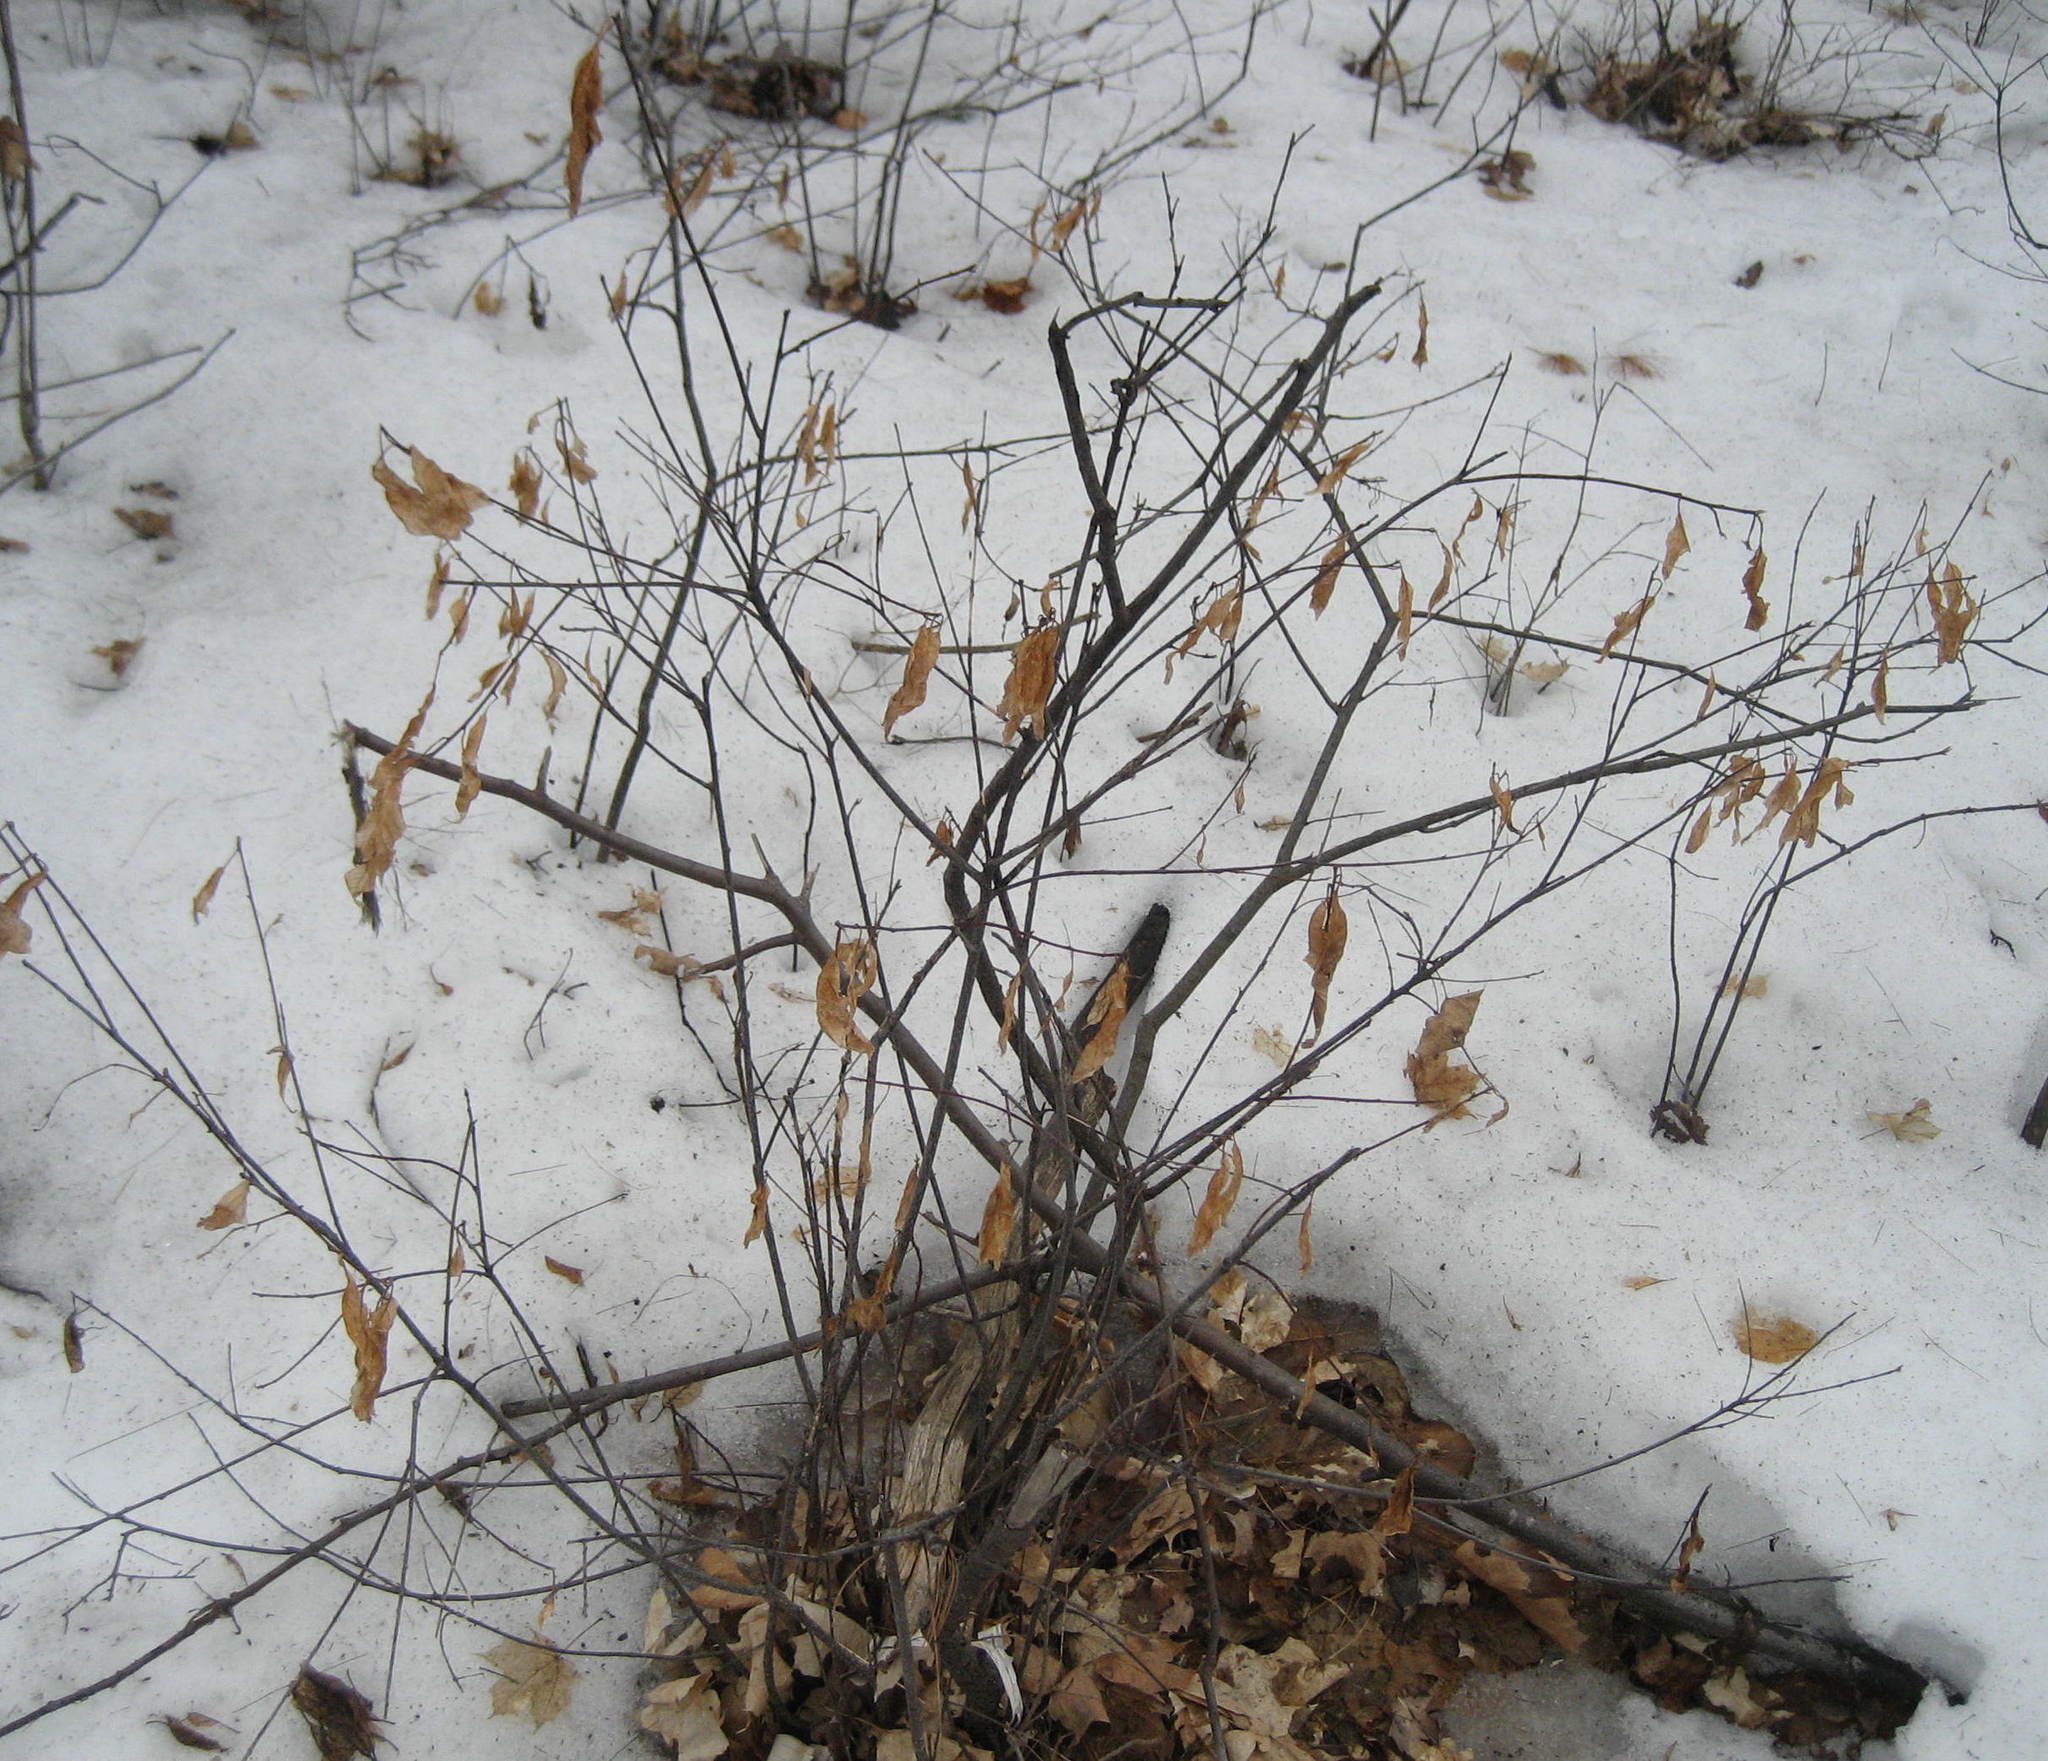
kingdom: Plantae
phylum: Tracheophyta
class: Magnoliopsida
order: Rosales
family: Rhamnaceae
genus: Frangula
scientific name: Frangula alnus
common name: Alder buckthorn
